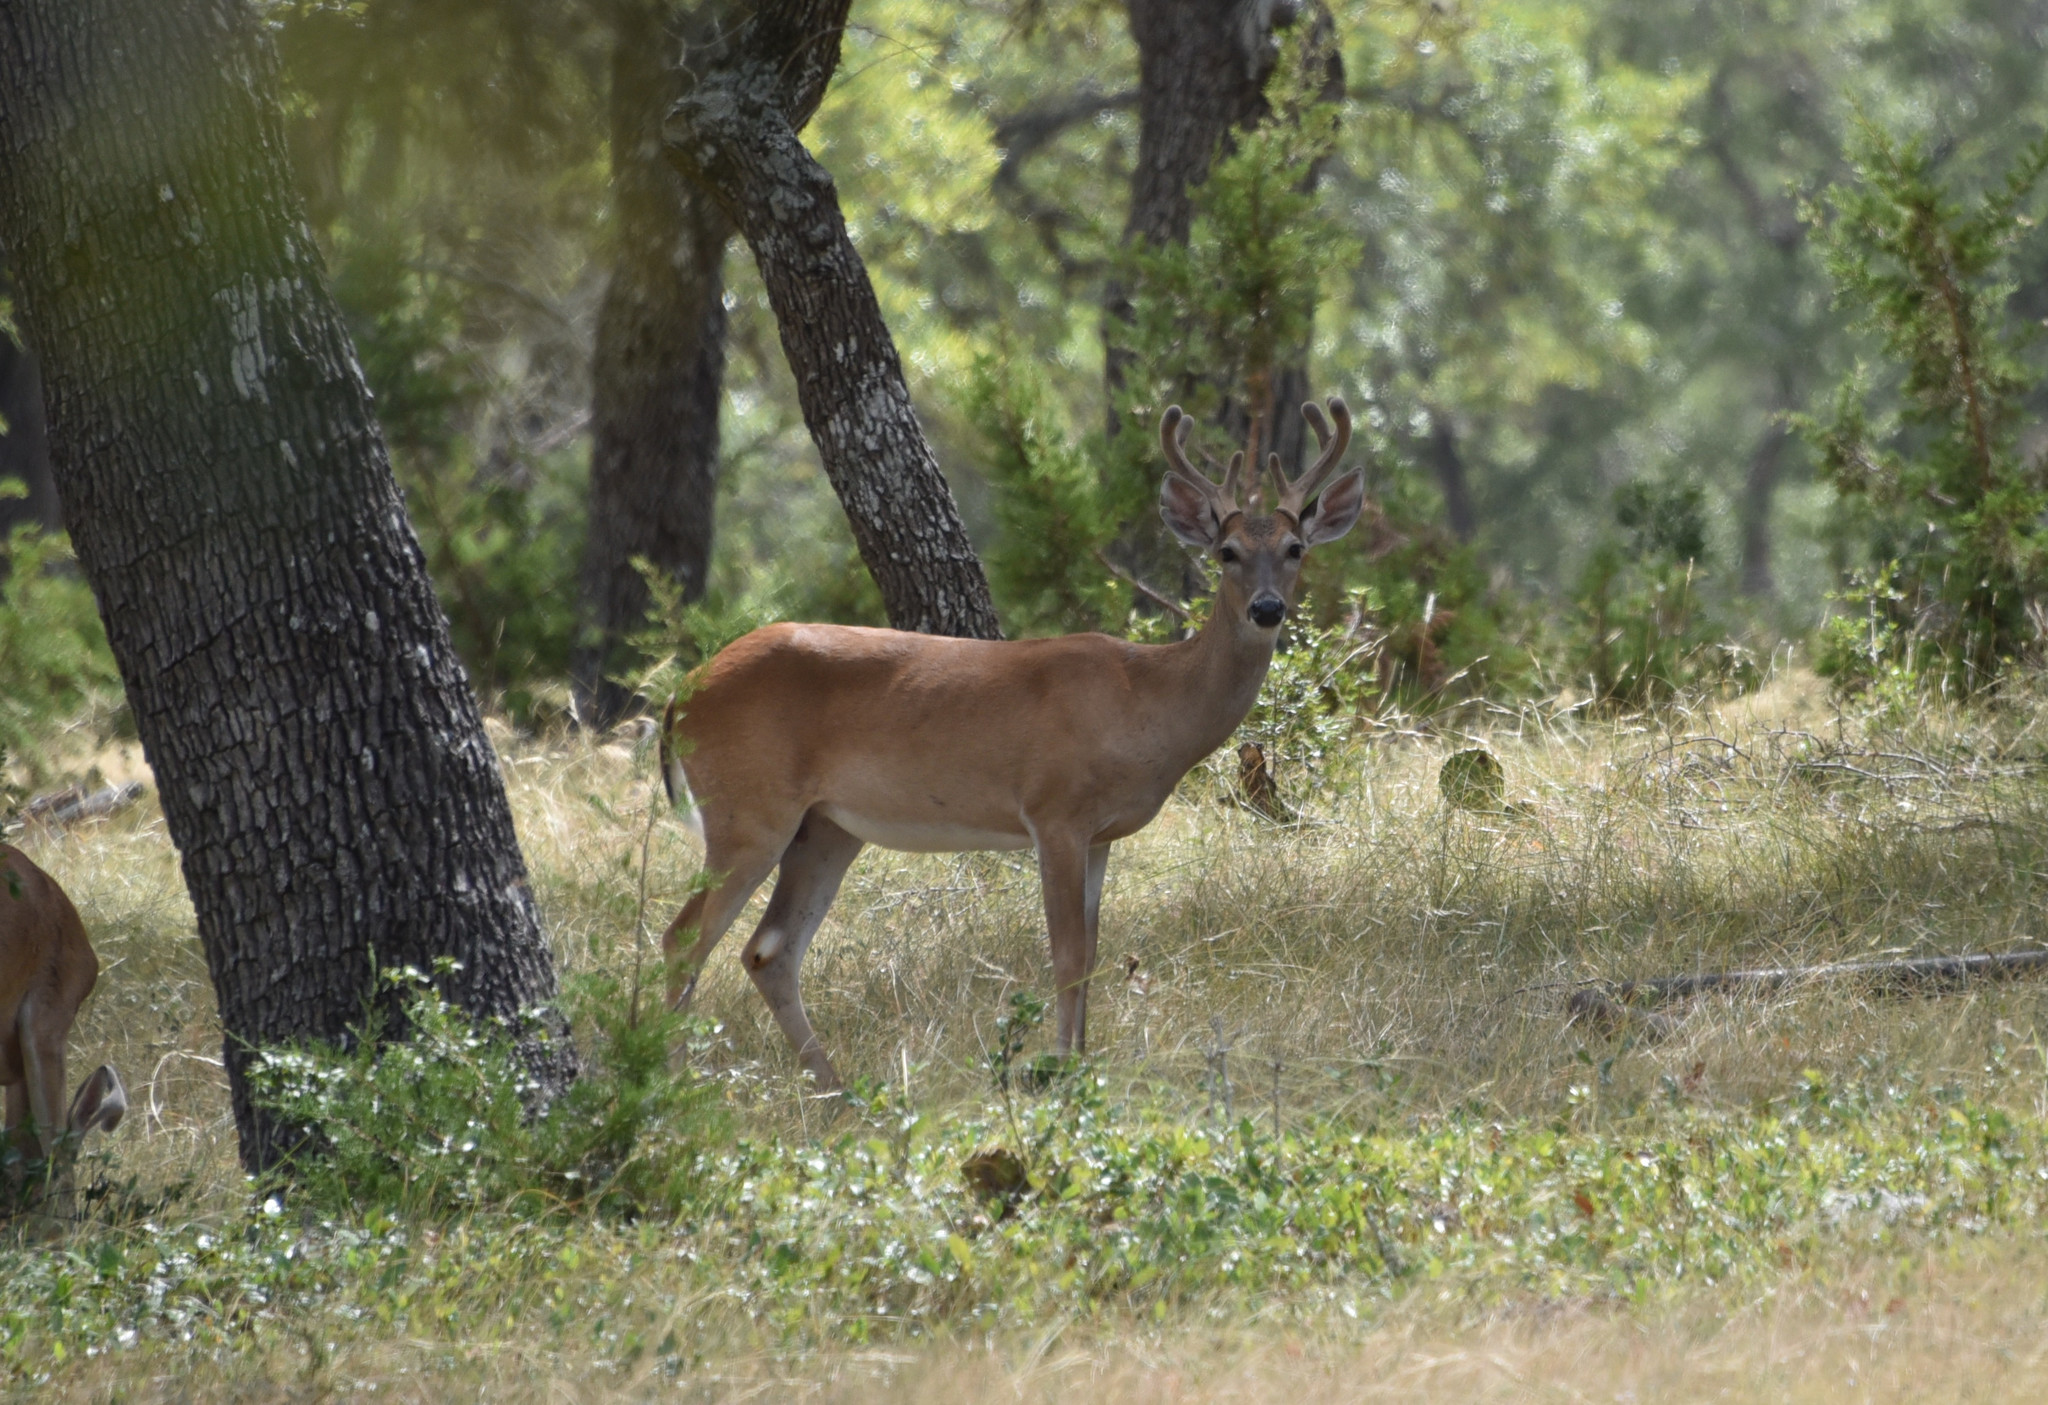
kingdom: Animalia
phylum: Chordata
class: Mammalia
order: Artiodactyla
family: Cervidae
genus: Odocoileus
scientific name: Odocoileus virginianus
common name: White-tailed deer
